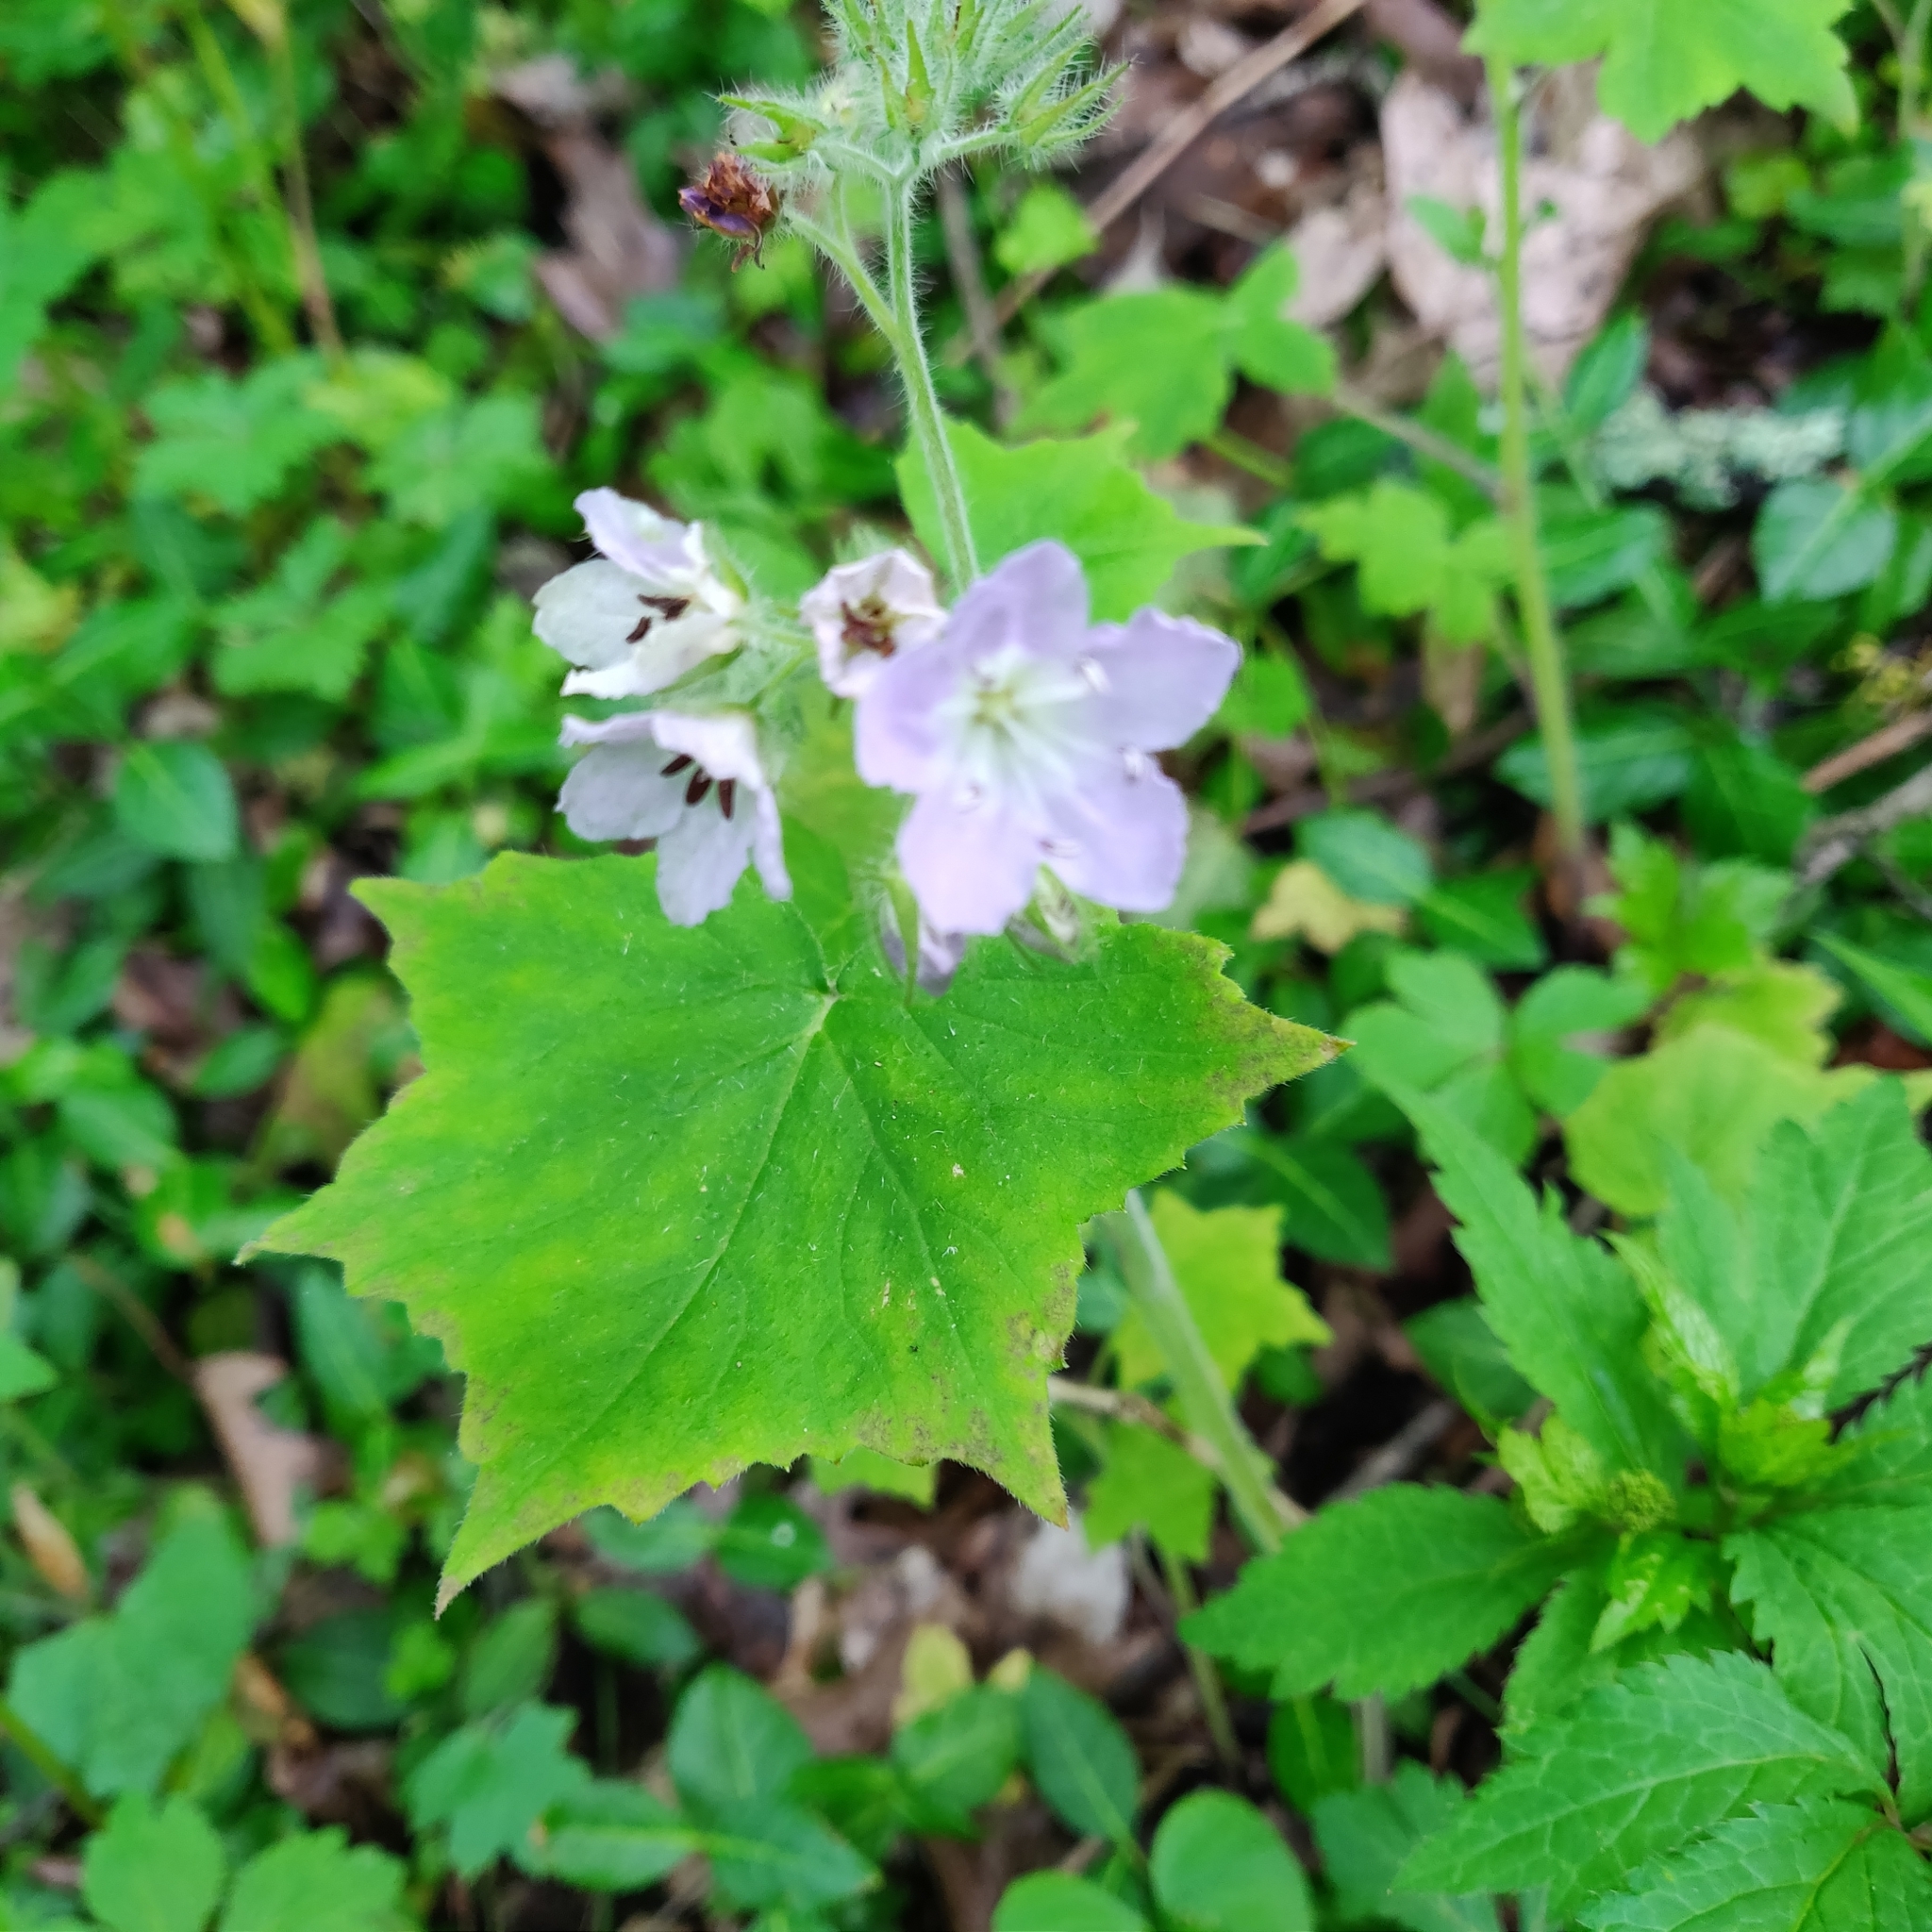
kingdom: Plantae
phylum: Tracheophyta
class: Magnoliopsida
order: Boraginales
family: Hydrophyllaceae
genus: Hydrophyllum
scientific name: Hydrophyllum appendiculatum
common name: Appendaged waterleaf
